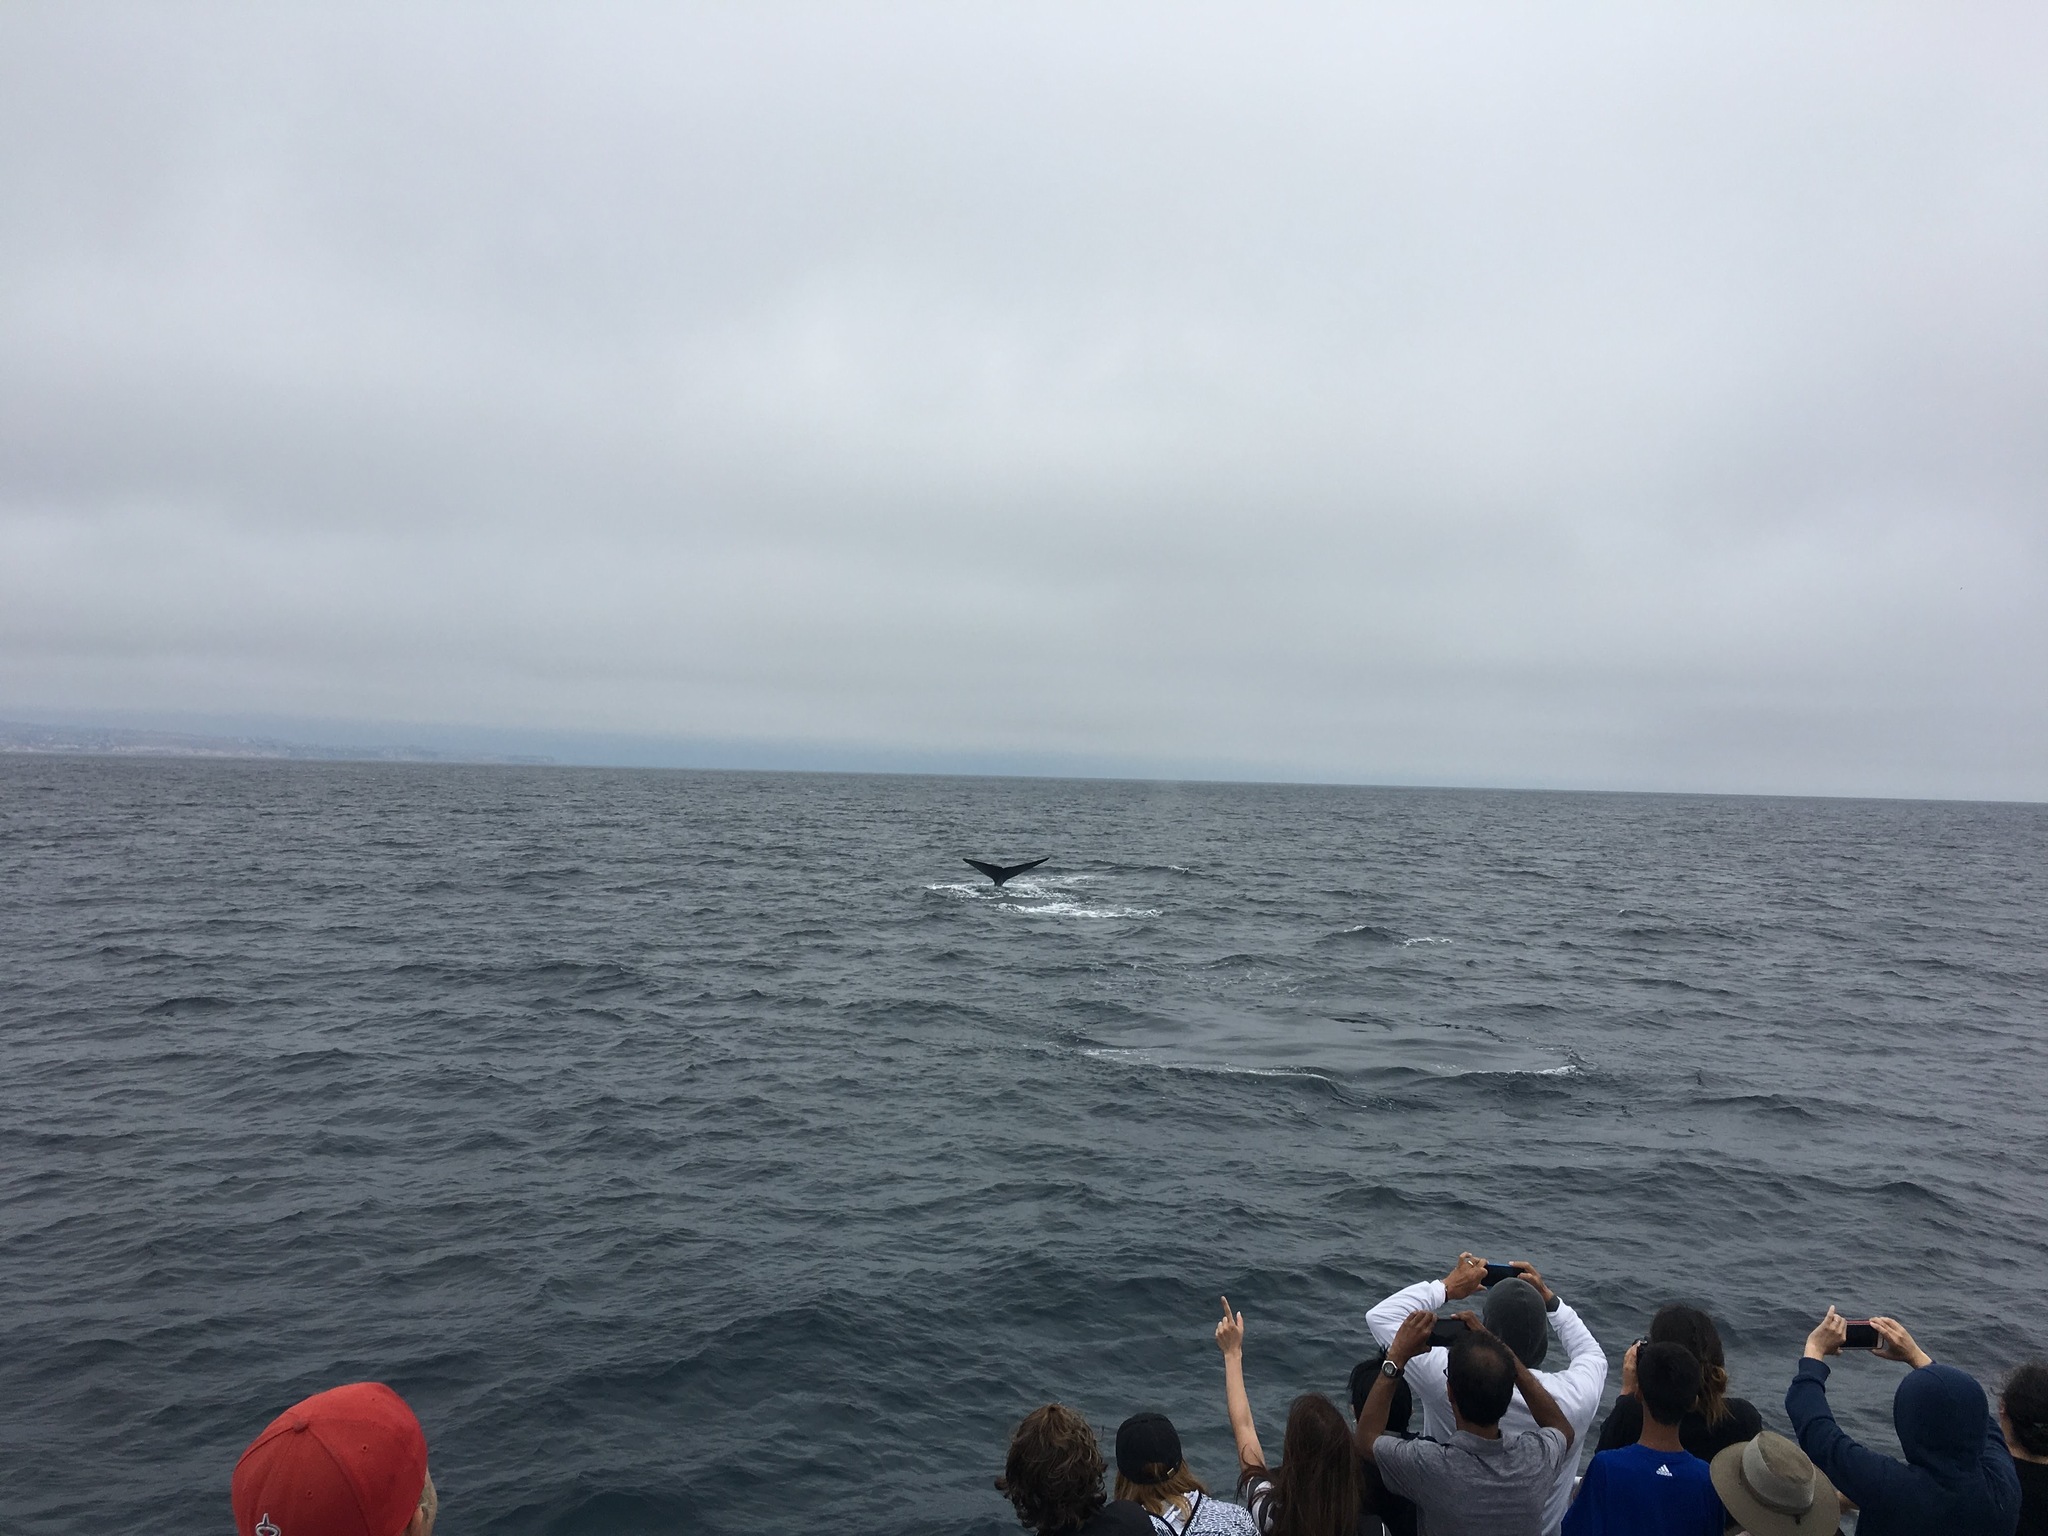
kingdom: Animalia
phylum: Chordata
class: Mammalia
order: Cetacea
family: Balaenopteridae
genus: Balaenoptera
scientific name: Balaenoptera musculus
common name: Blue whale
